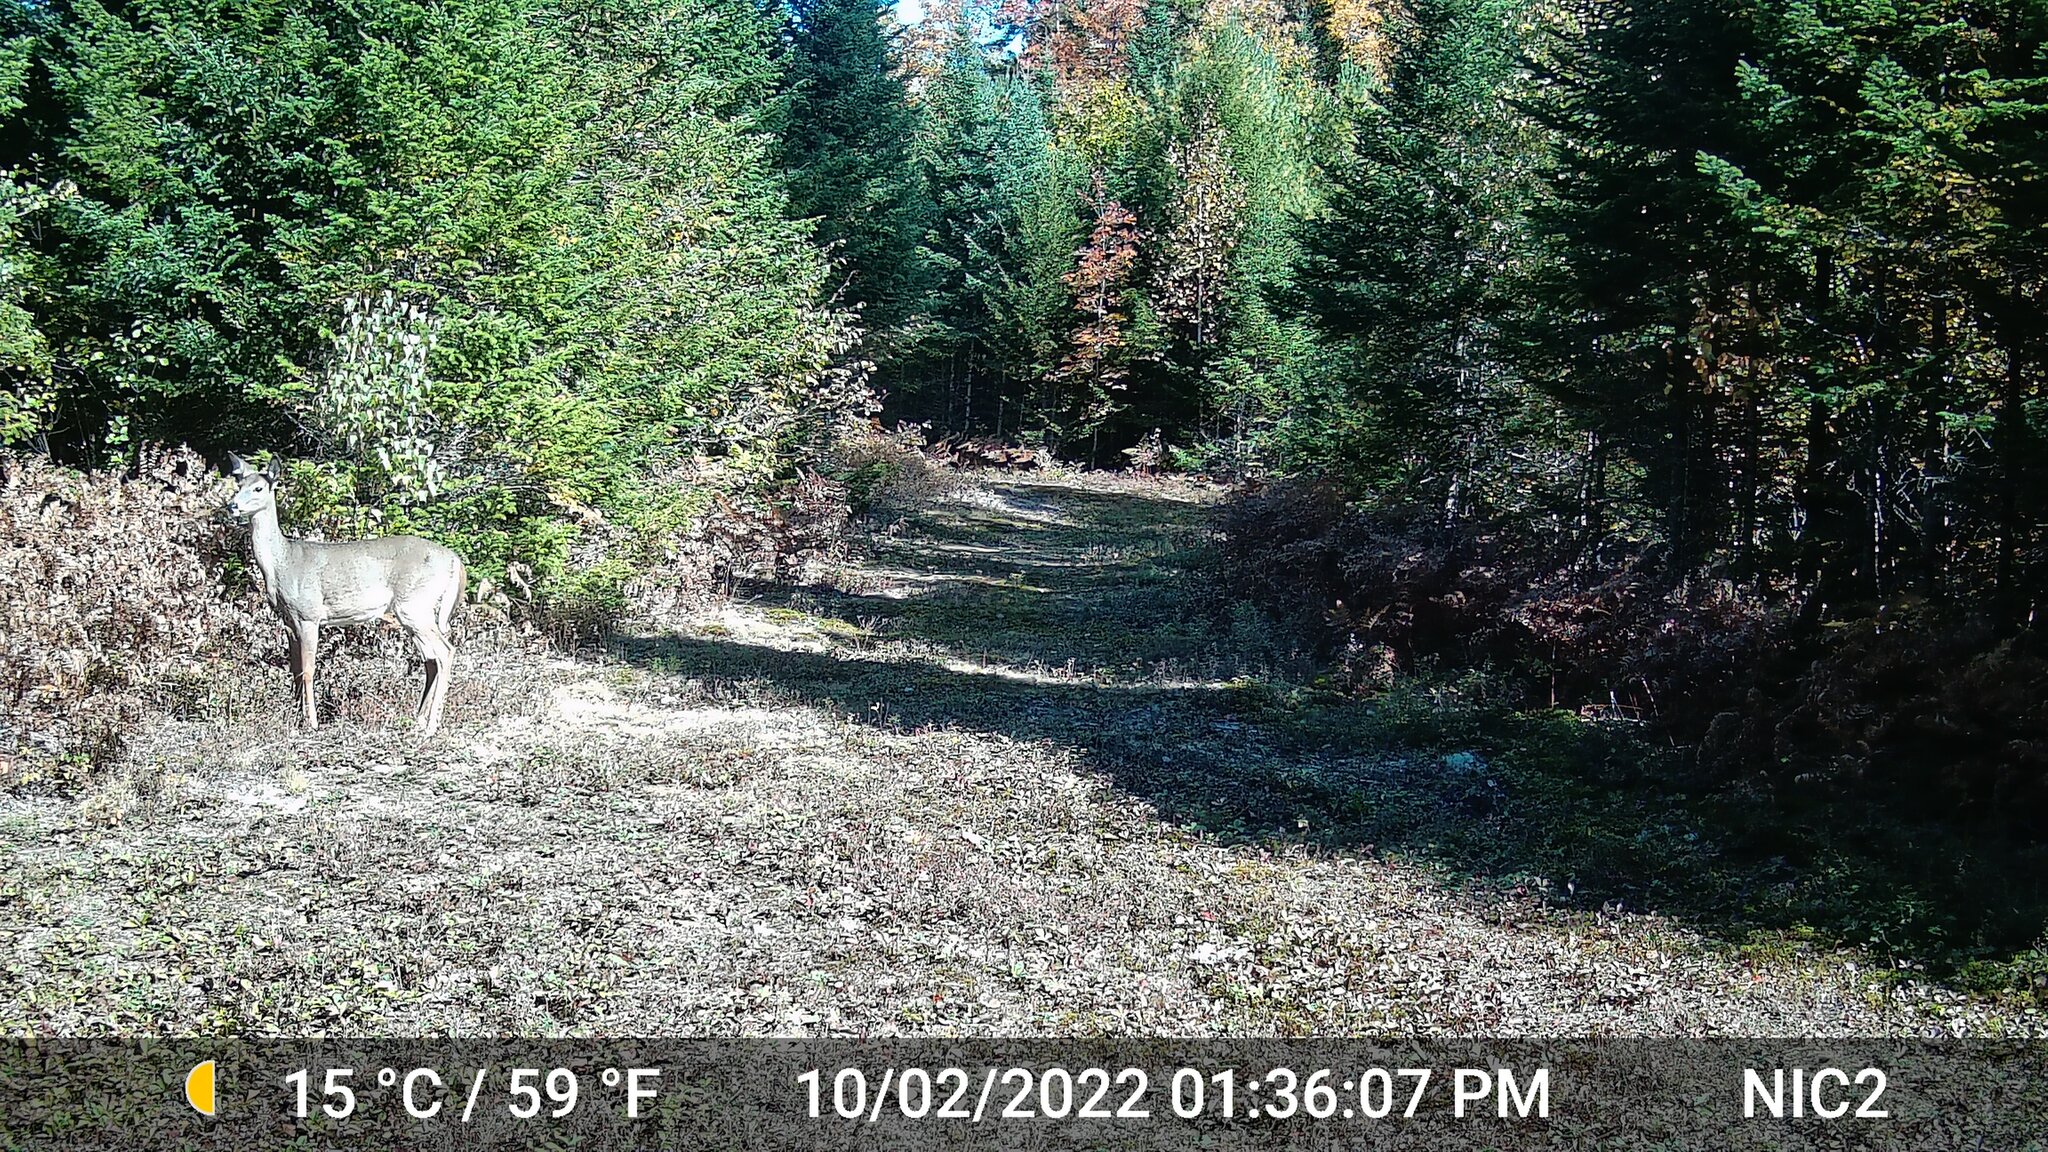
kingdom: Animalia
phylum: Chordata
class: Mammalia
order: Artiodactyla
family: Cervidae
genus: Odocoileus
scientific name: Odocoileus virginianus
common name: White-tailed deer
